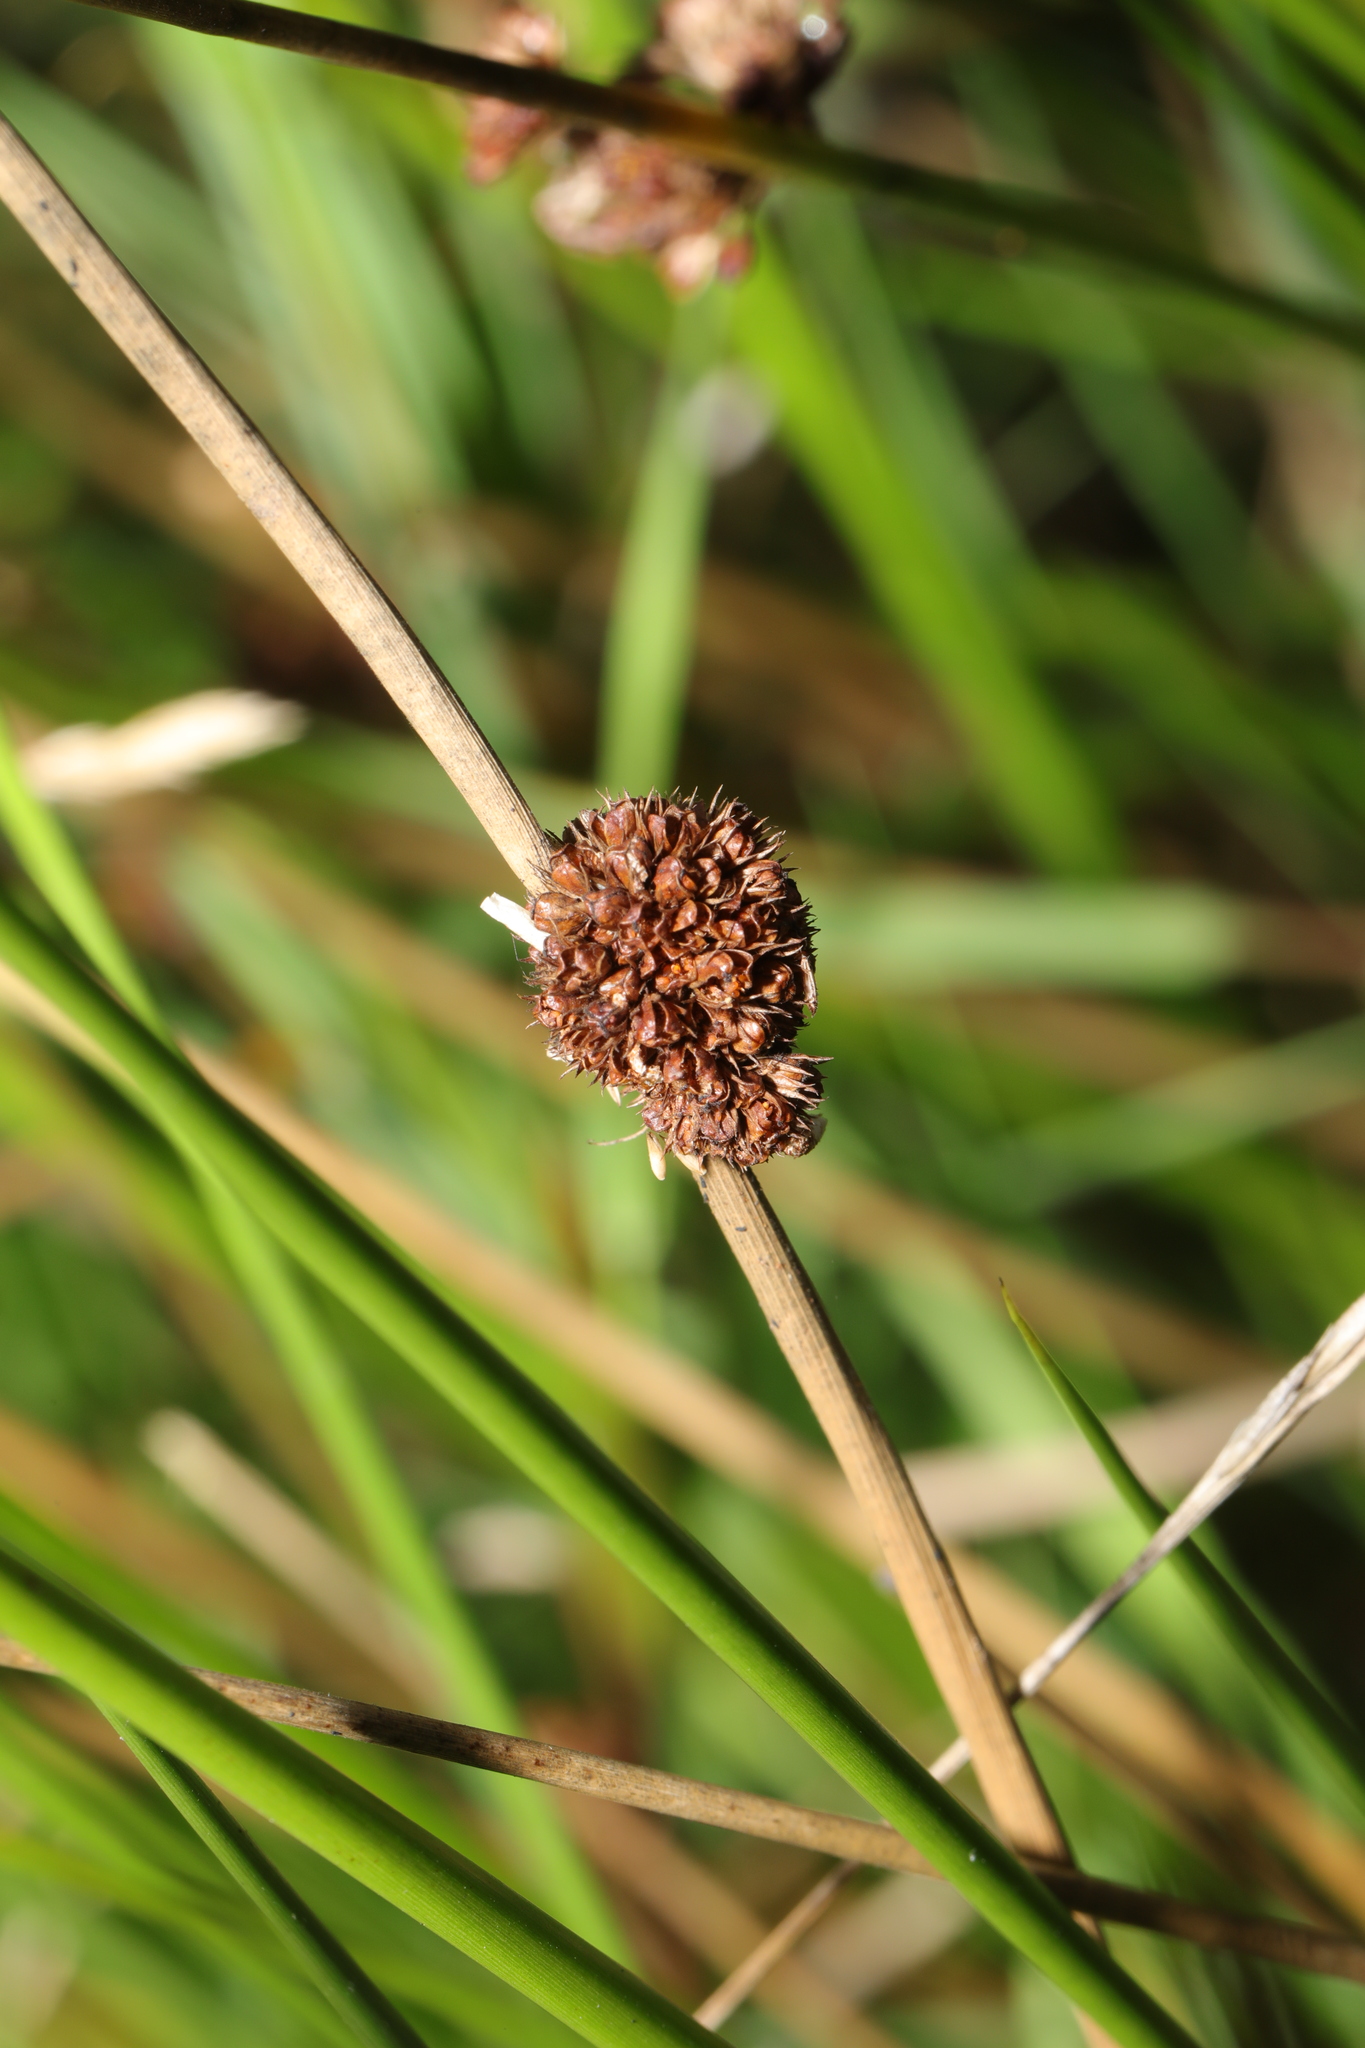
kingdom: Plantae
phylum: Tracheophyta
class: Liliopsida
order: Poales
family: Juncaceae
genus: Juncus
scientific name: Juncus conglomeratus
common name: Compact rush
